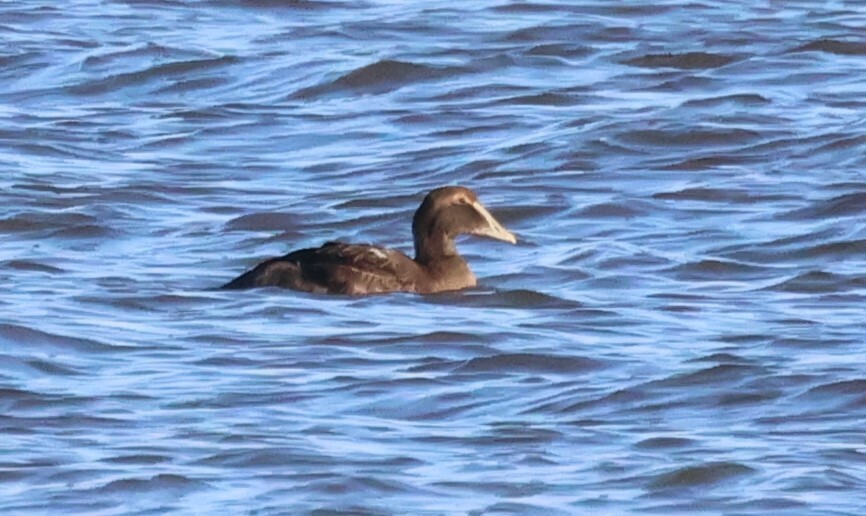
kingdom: Animalia
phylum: Chordata
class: Aves
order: Anseriformes
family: Anatidae
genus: Somateria
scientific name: Somateria mollissima
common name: Common eider
